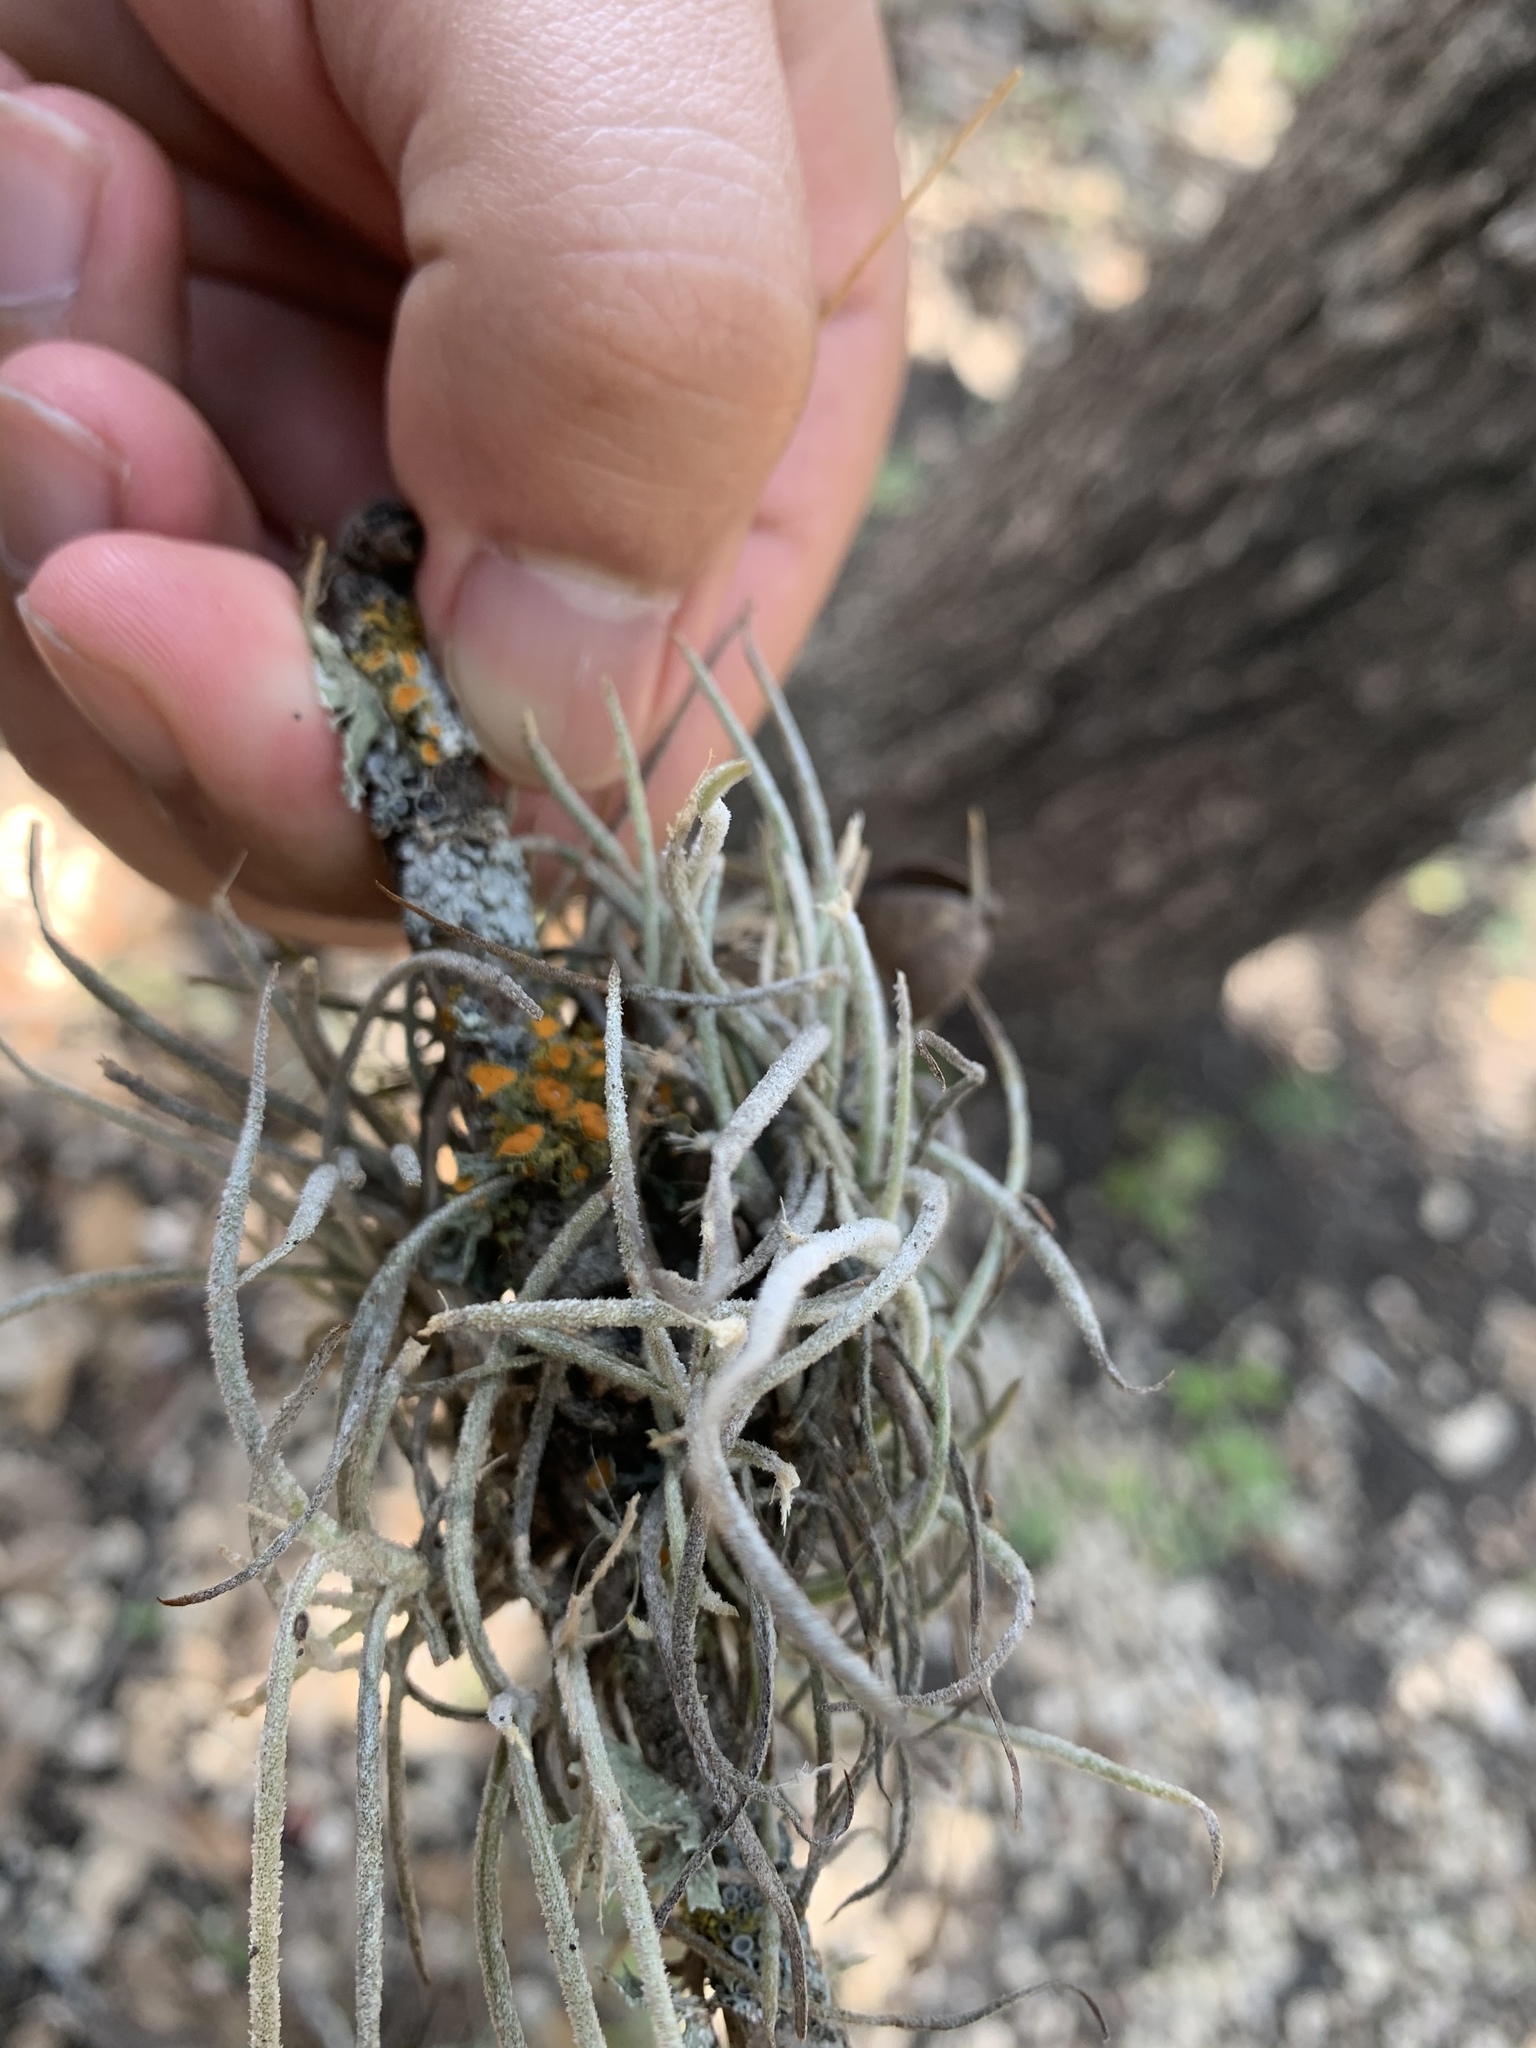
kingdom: Plantae
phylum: Tracheophyta
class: Liliopsida
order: Poales
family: Bromeliaceae
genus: Tillandsia
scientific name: Tillandsia recurvata
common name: Small ballmoss
